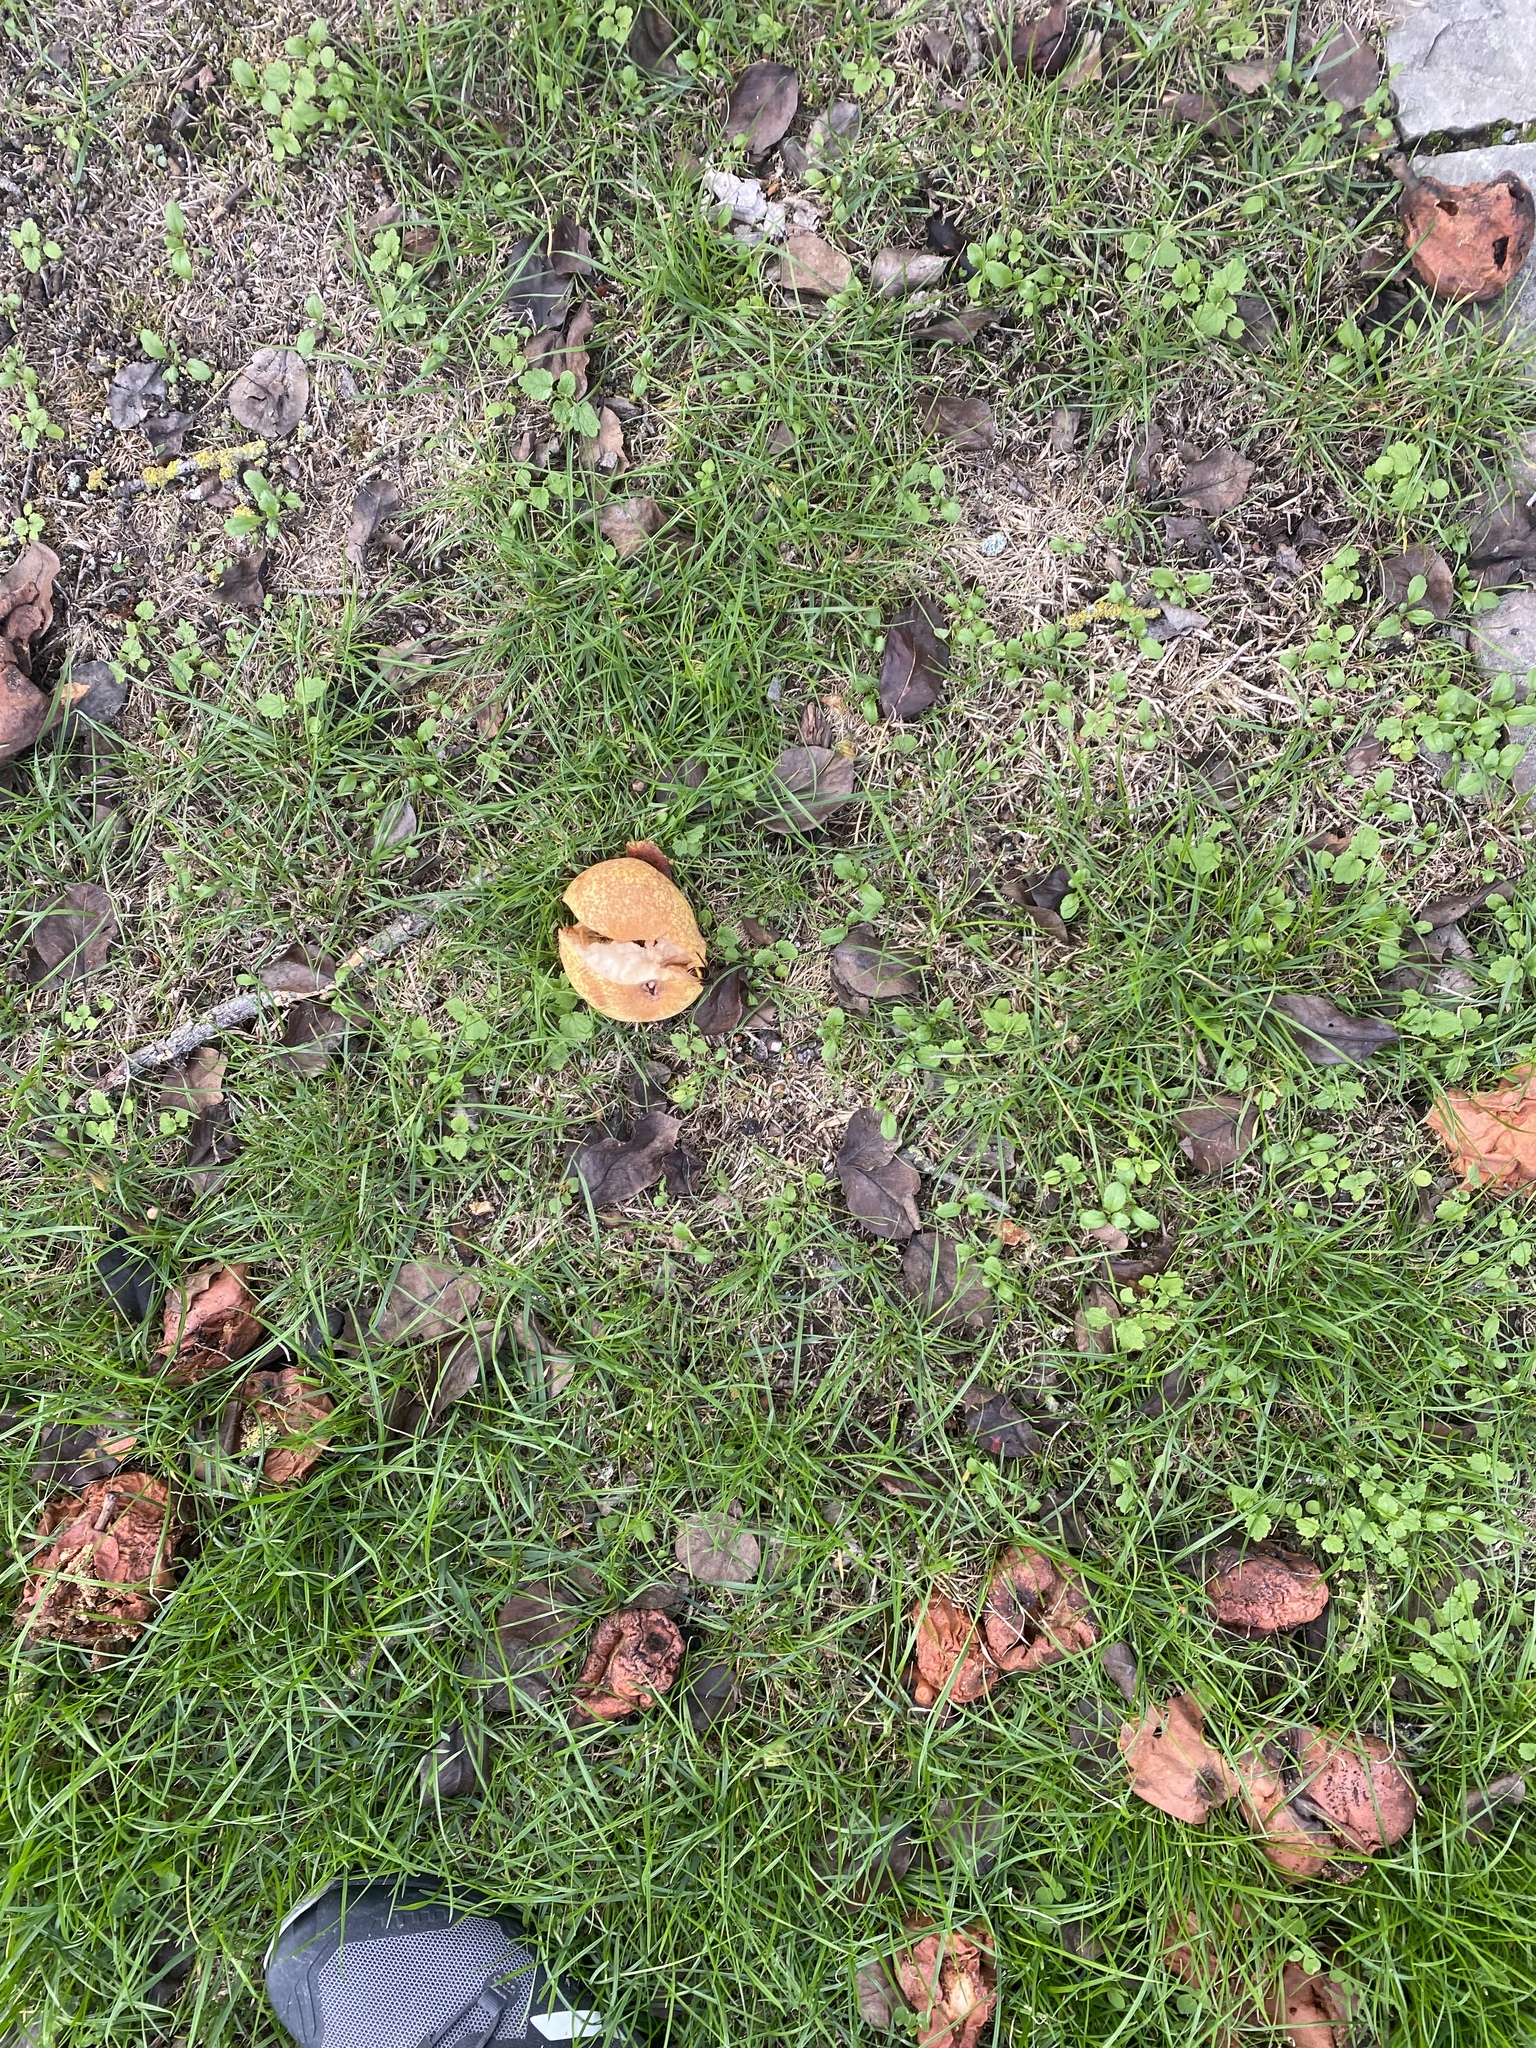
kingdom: Animalia
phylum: Arthropoda
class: Insecta
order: Hymenoptera
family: Vespidae
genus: Vespa
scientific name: Vespa velutina
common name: Asian hornet
